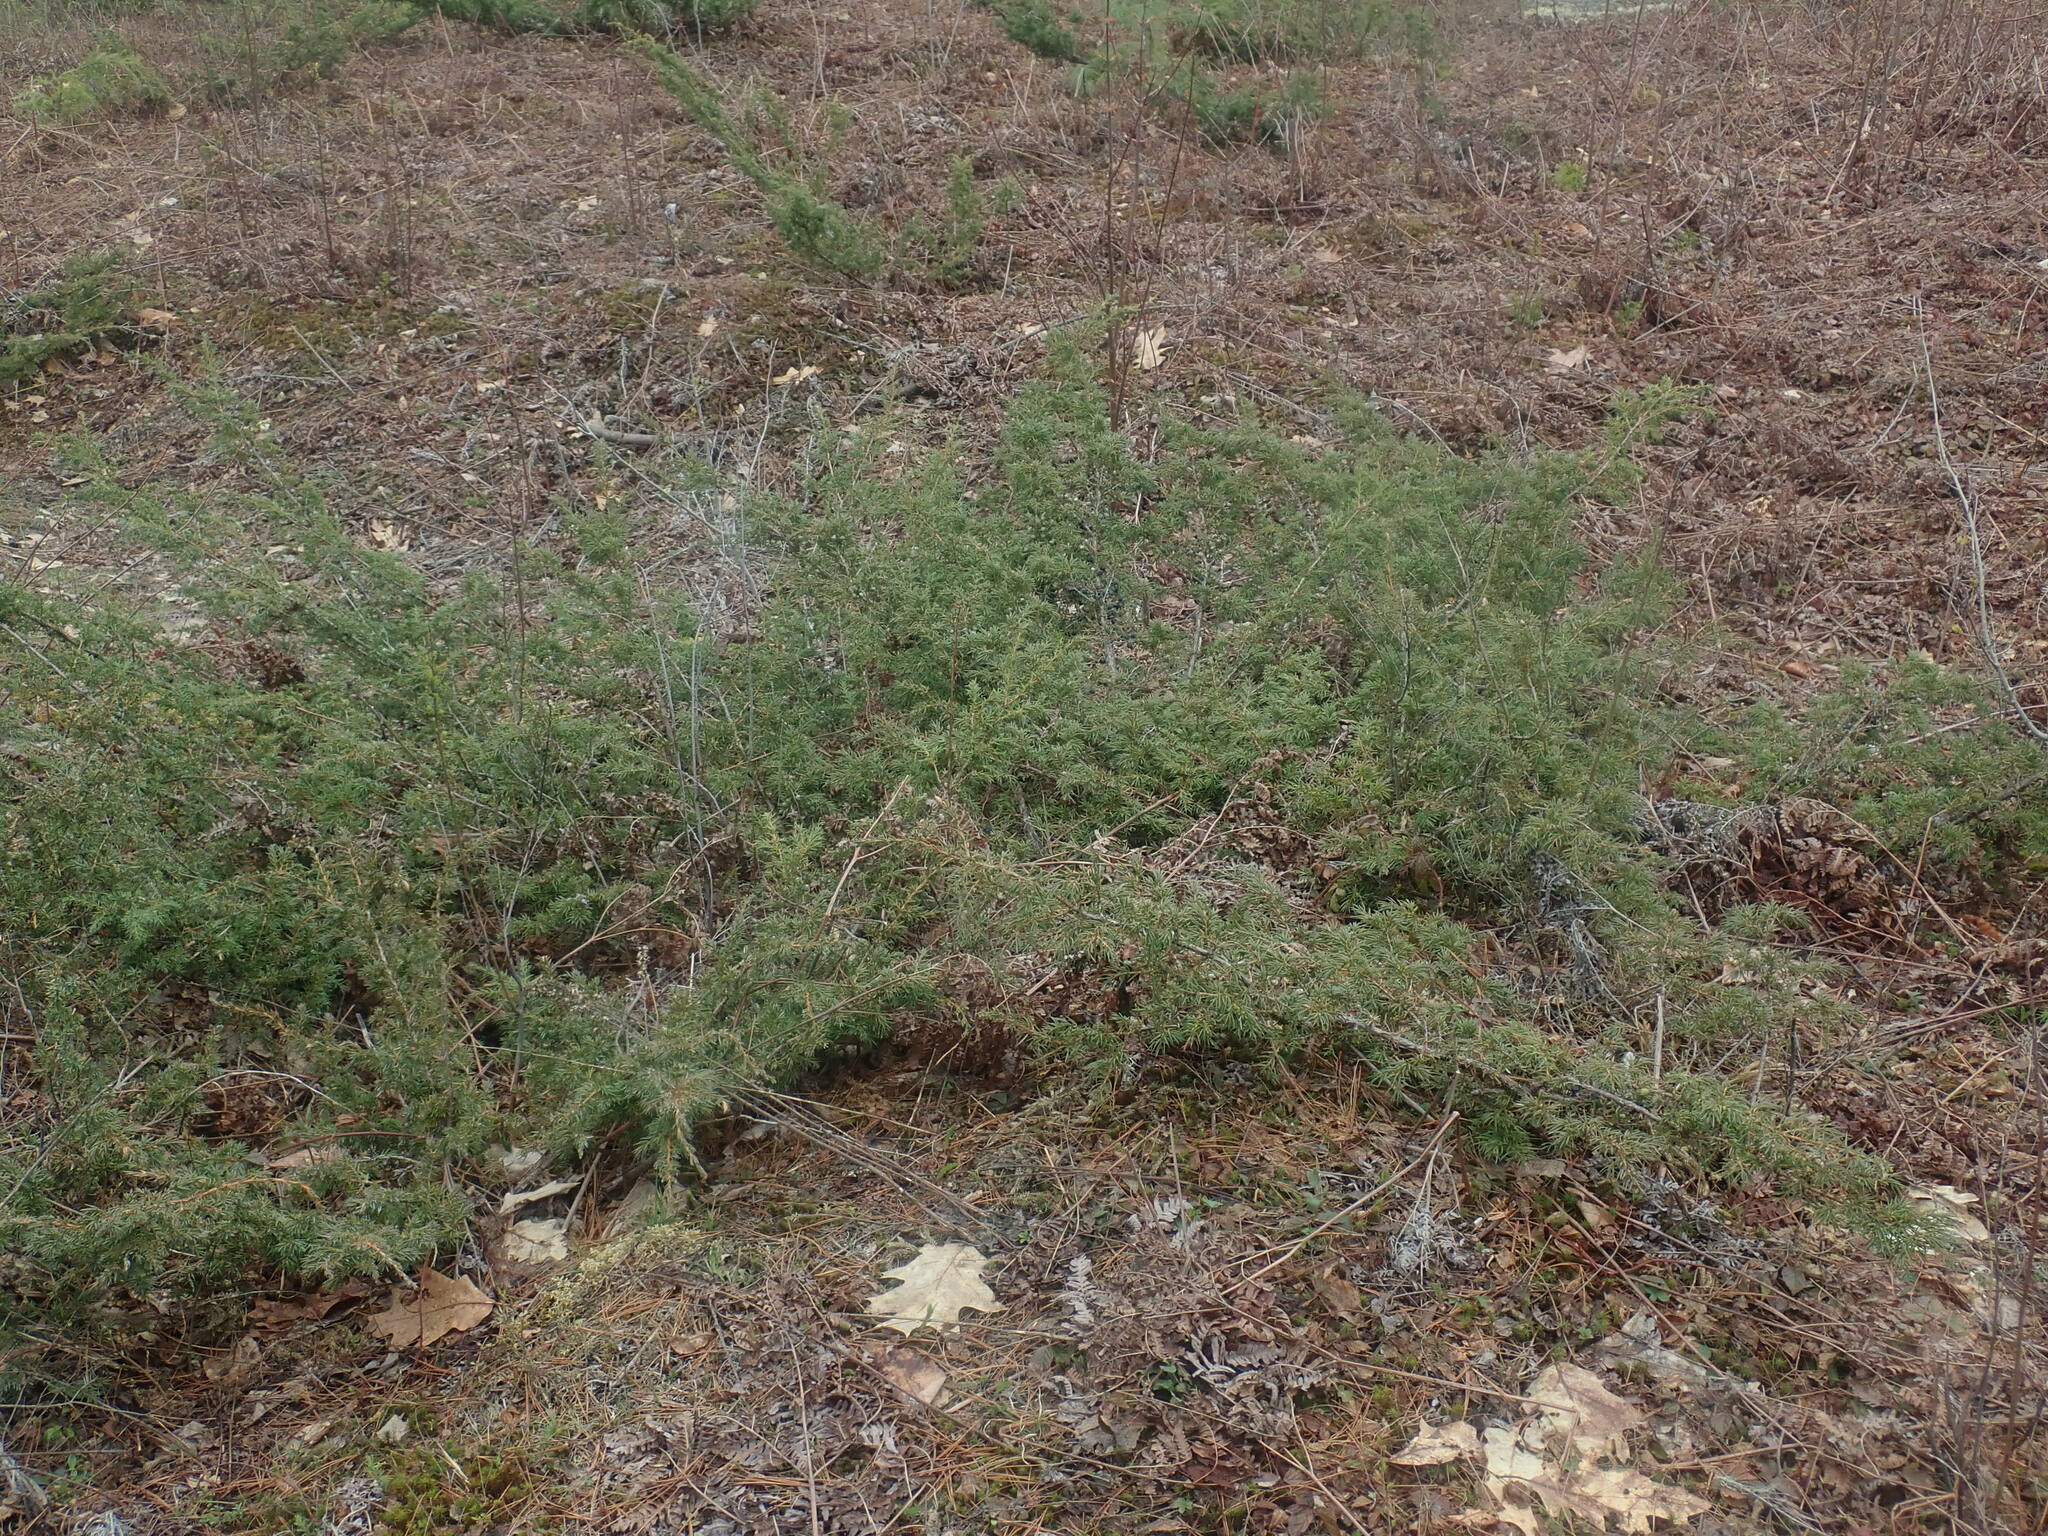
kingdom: Plantae
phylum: Tracheophyta
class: Pinopsida
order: Pinales
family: Cupressaceae
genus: Juniperus
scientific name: Juniperus communis
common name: Common juniper
